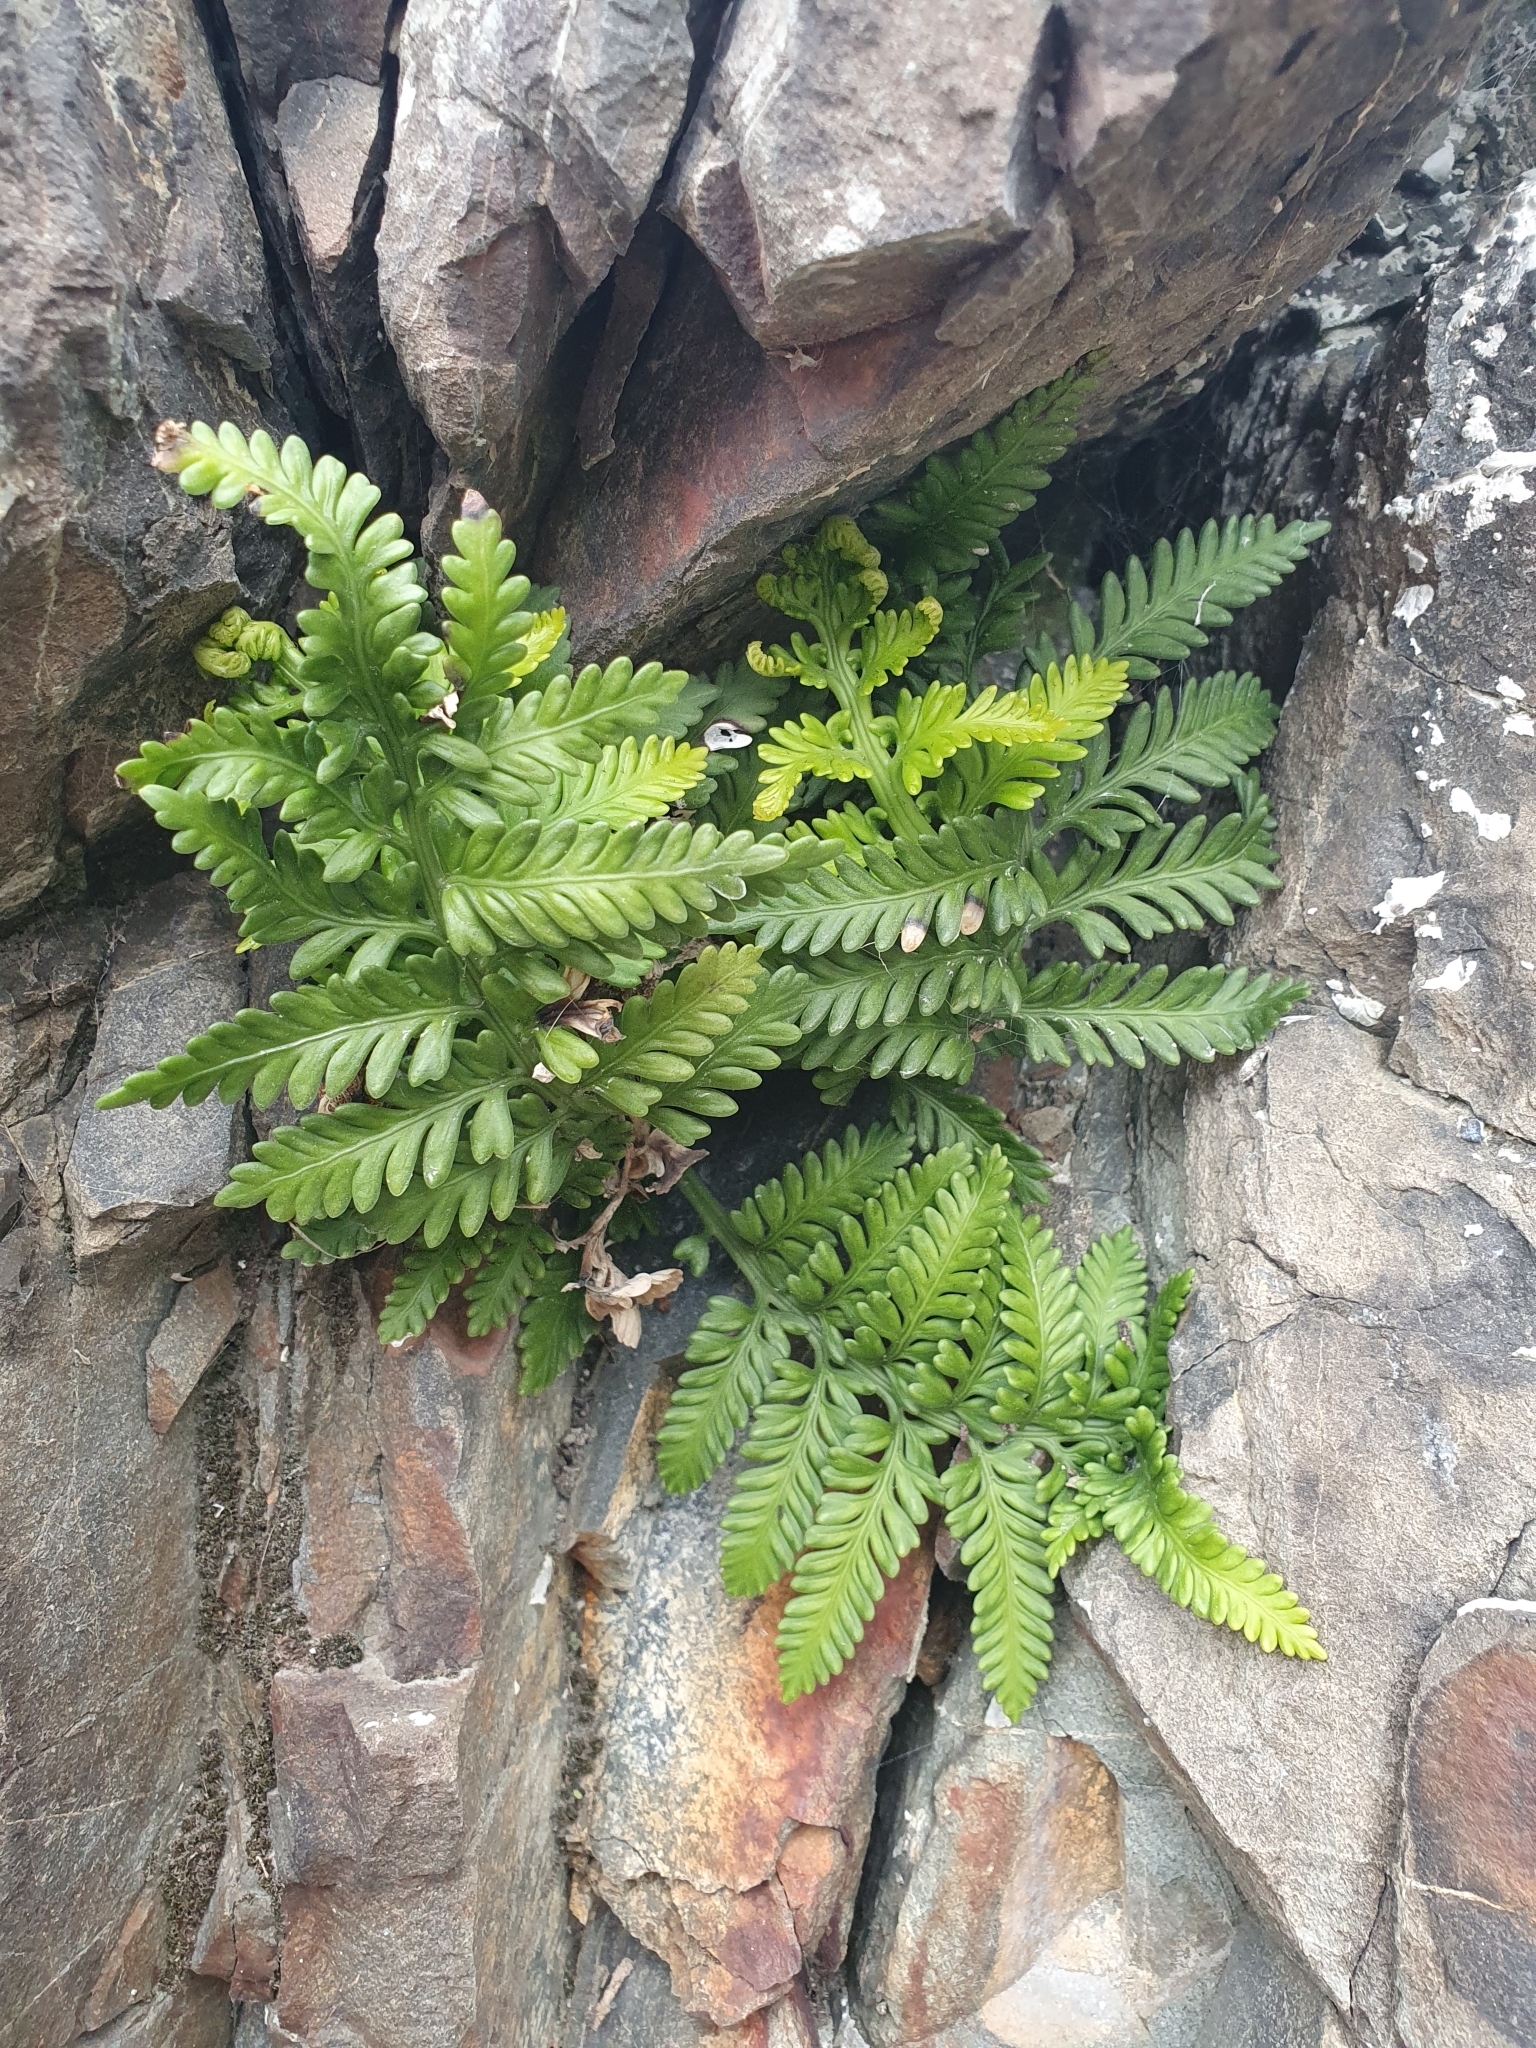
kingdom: Plantae
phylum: Tracheophyta
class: Polypodiopsida
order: Polypodiales
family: Aspleniaceae
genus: Asplenium
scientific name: Asplenium appendiculatum
